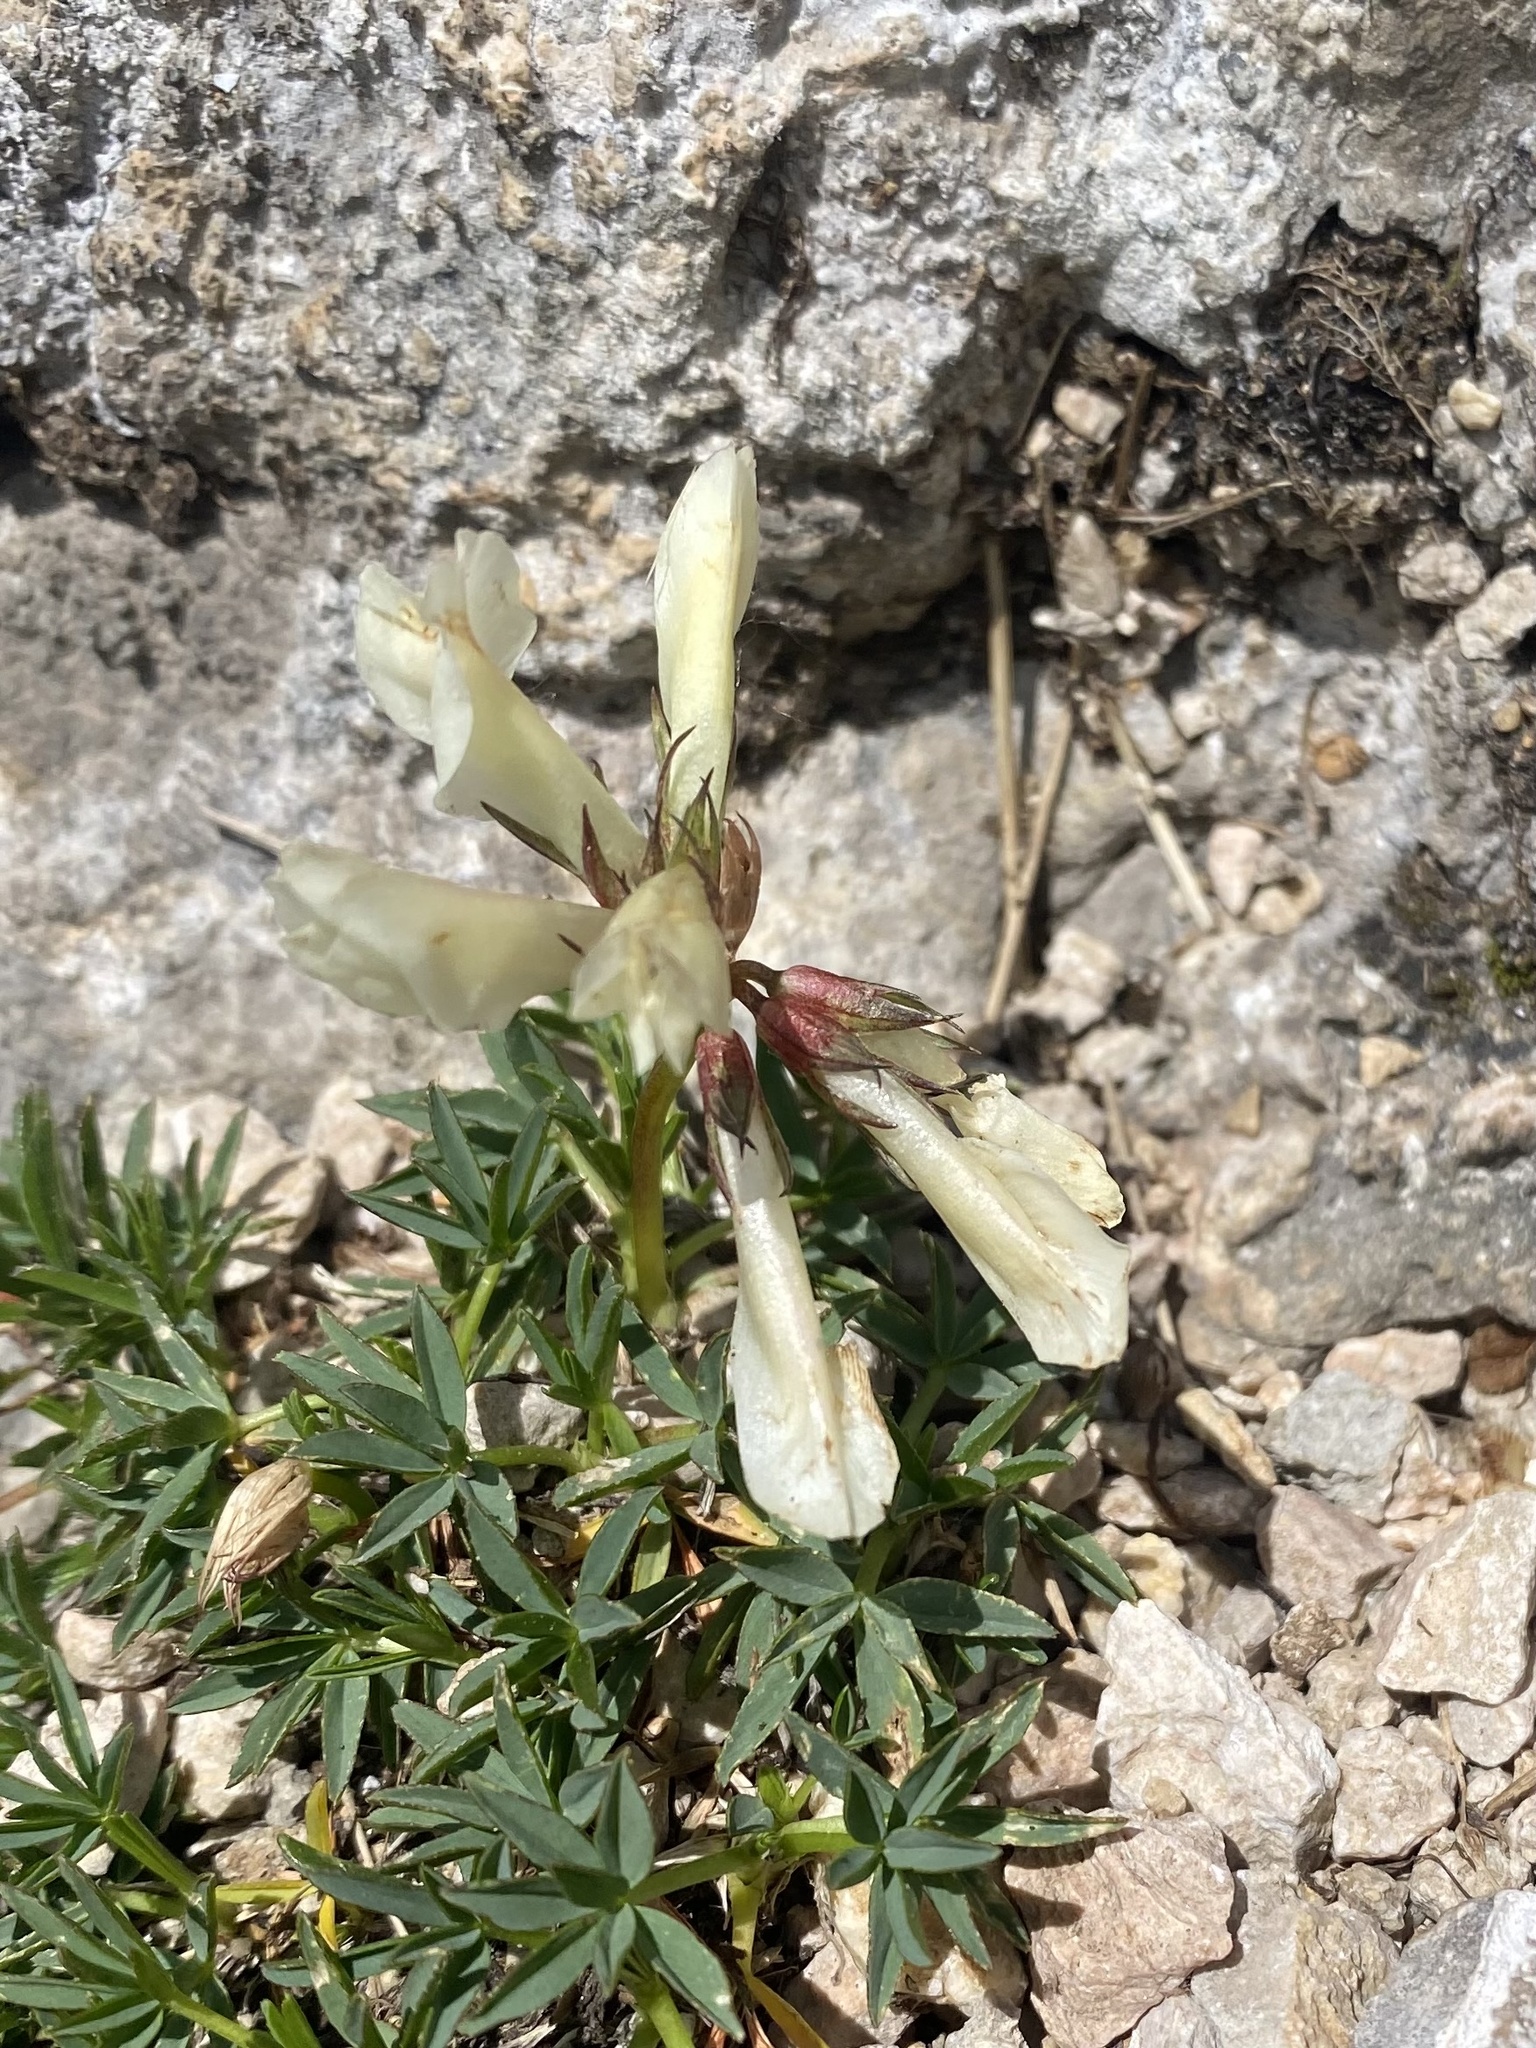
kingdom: Plantae
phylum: Tracheophyta
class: Magnoliopsida
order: Fabales
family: Fabaceae
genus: Trifolium
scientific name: Trifolium polyphyllum
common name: Many-leaf clover
